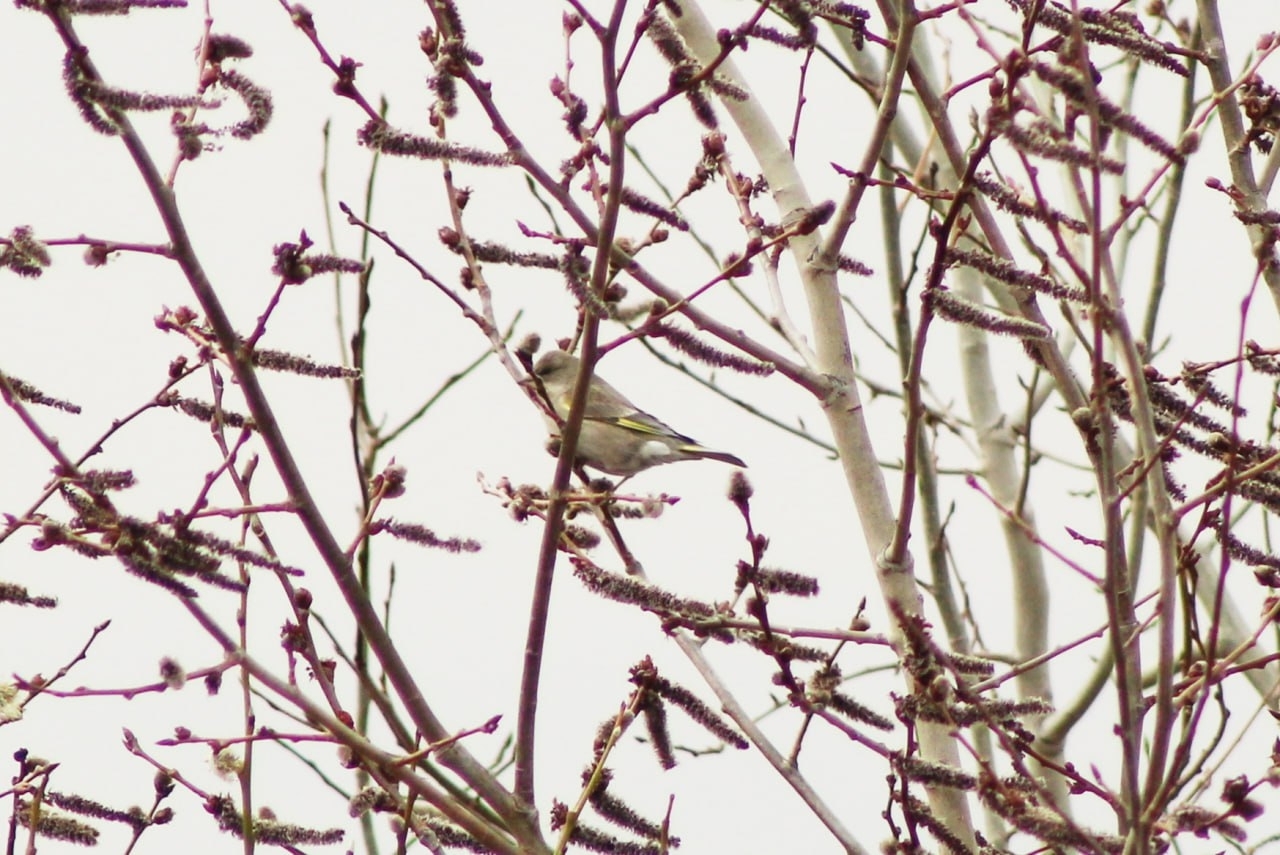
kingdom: Plantae
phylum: Tracheophyta
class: Liliopsida
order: Poales
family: Poaceae
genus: Chloris
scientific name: Chloris chloris
